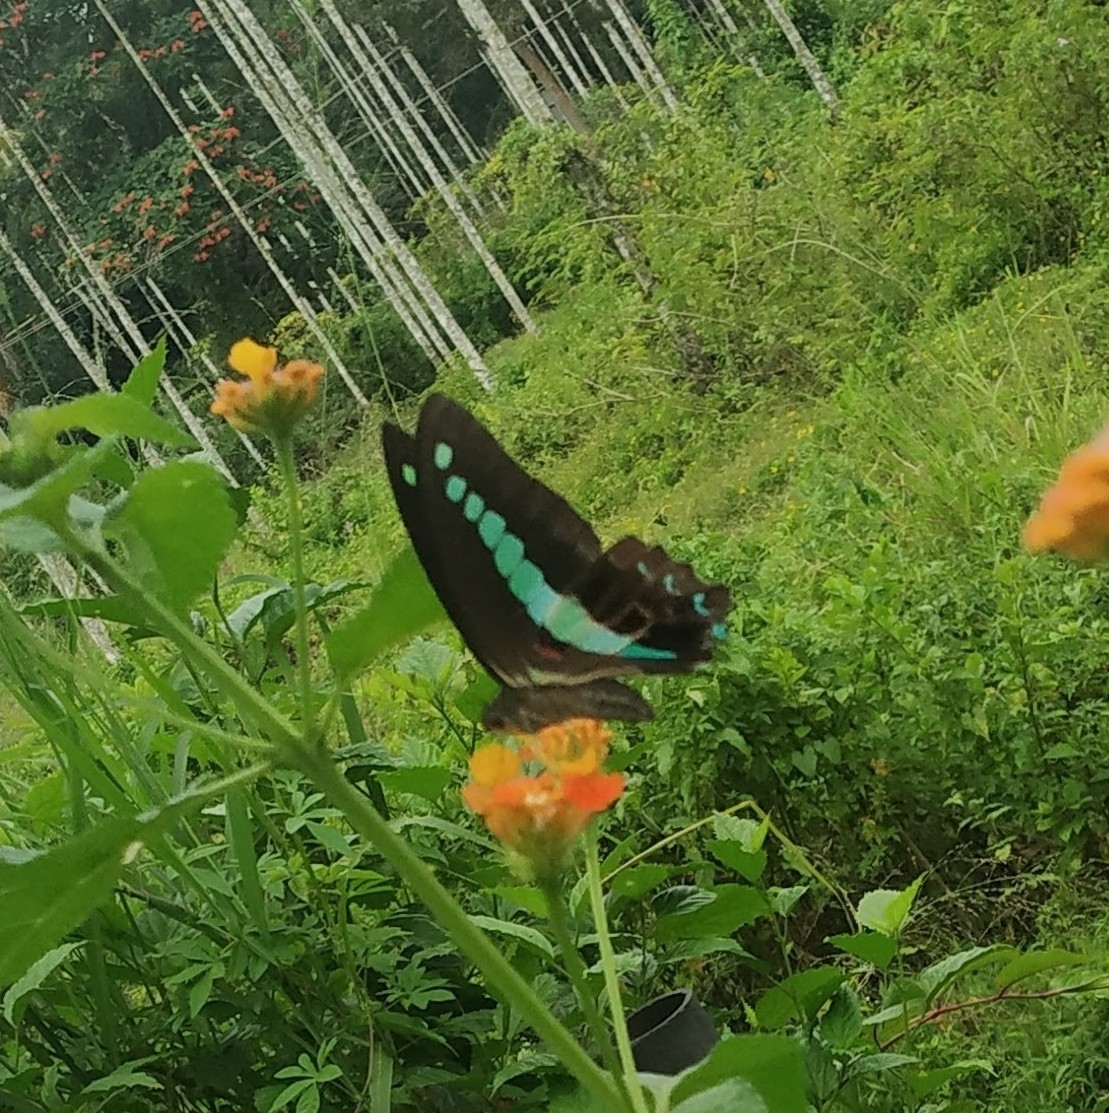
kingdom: Animalia
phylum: Arthropoda
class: Insecta
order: Lepidoptera
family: Papilionidae
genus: Graphium
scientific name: Graphium
